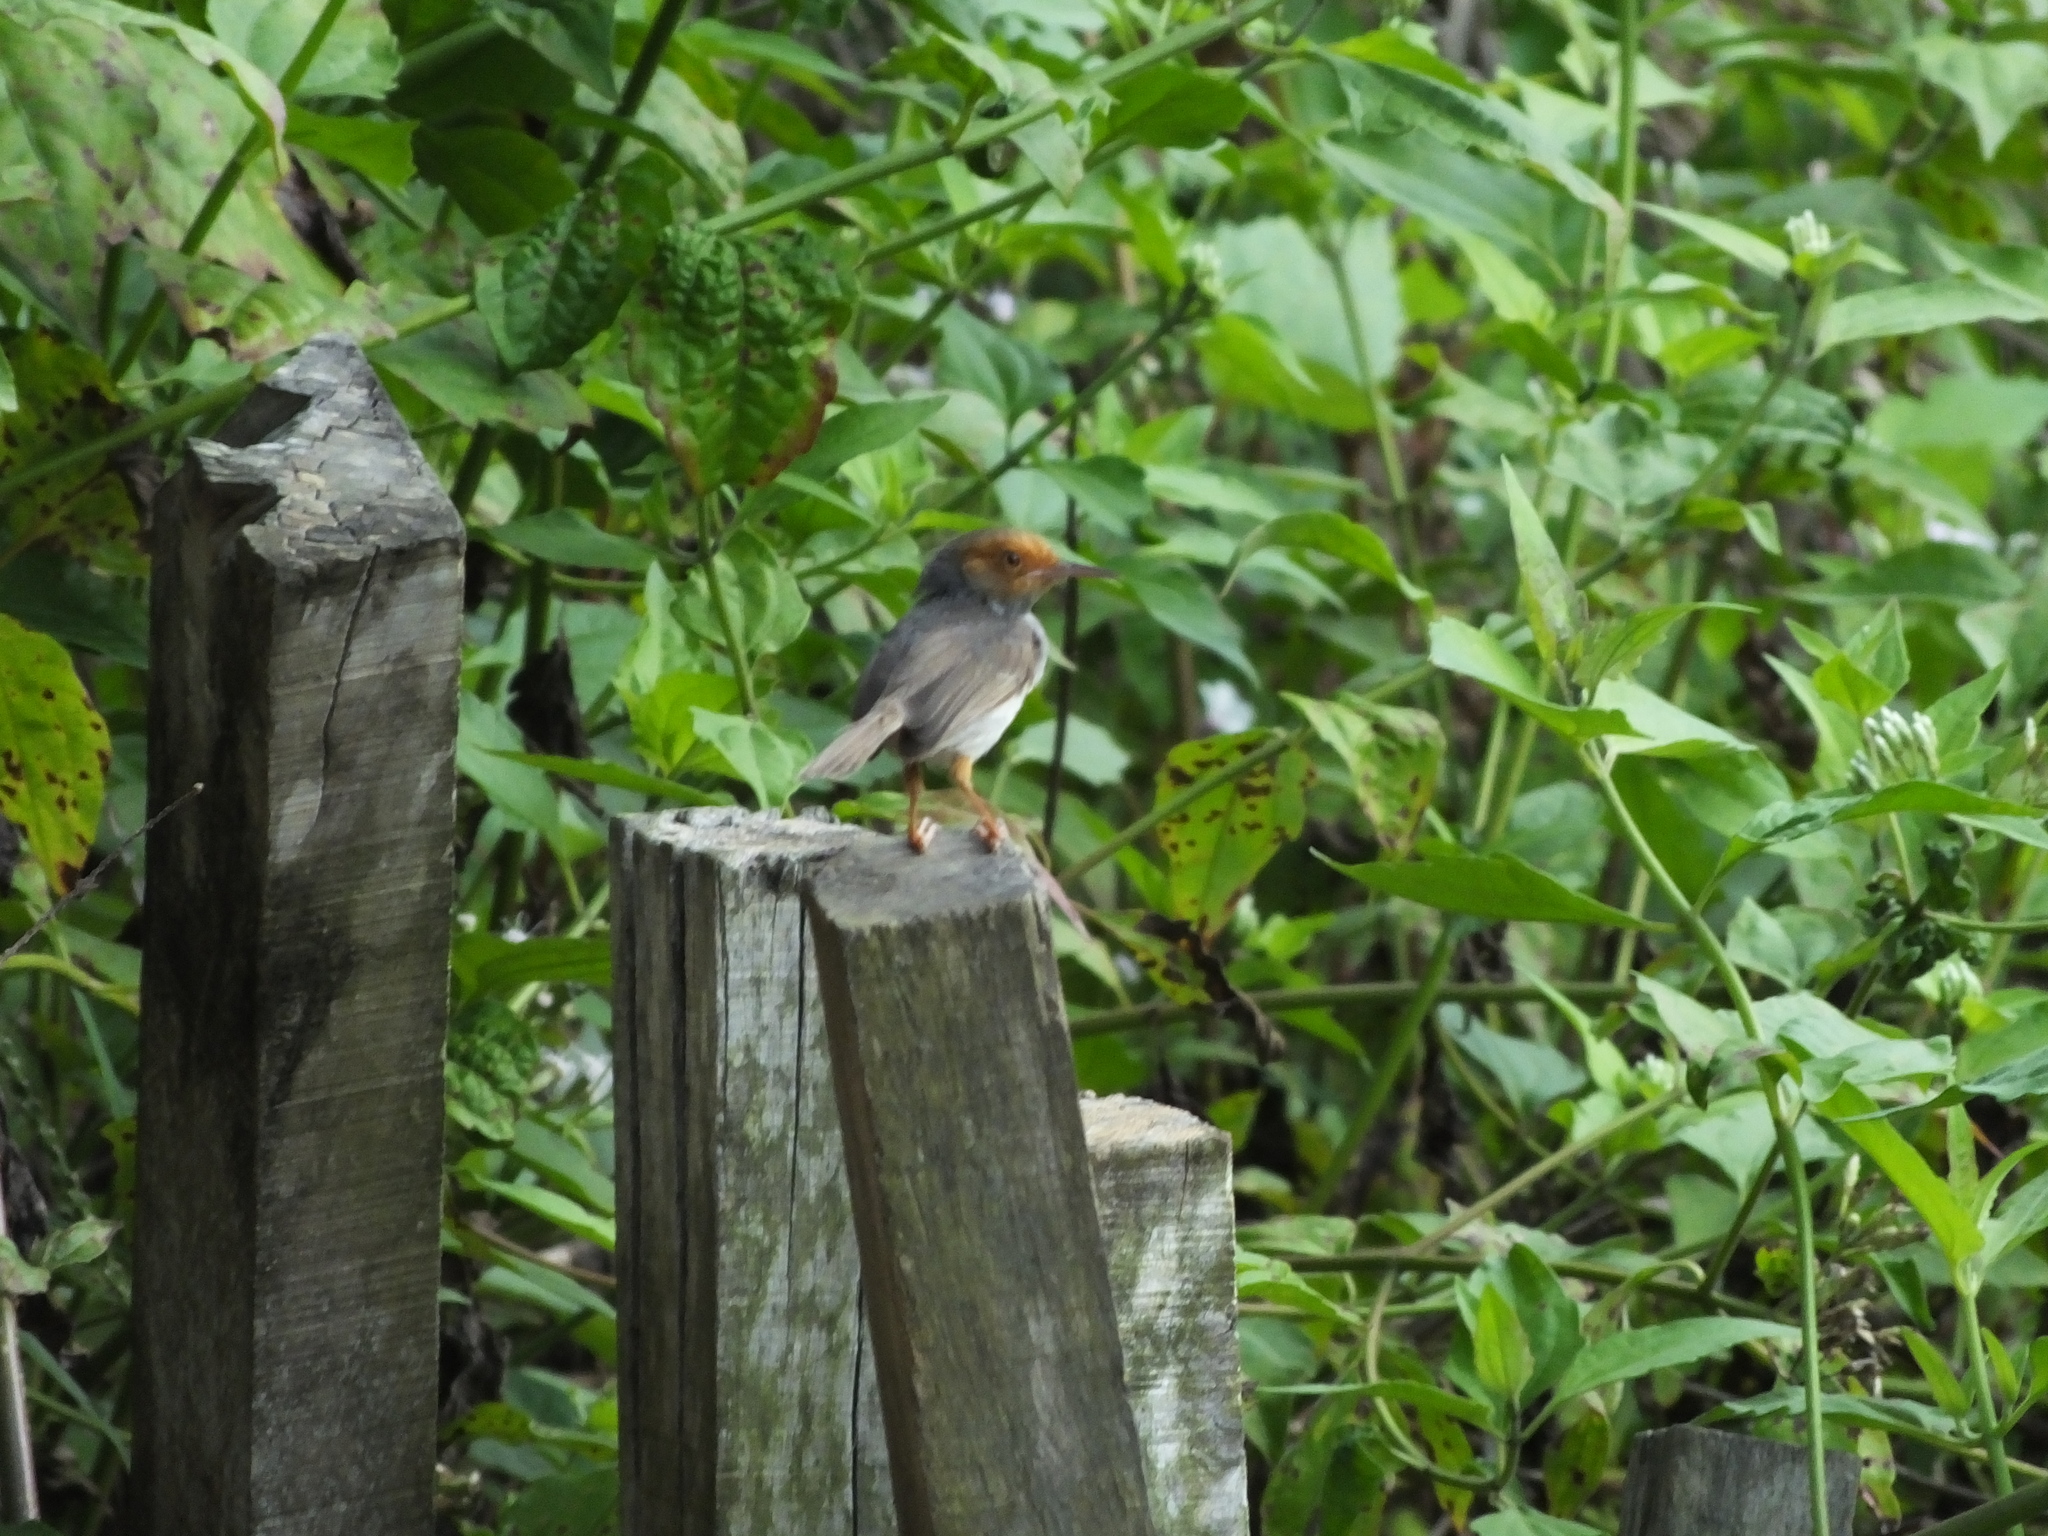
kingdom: Animalia
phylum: Chordata
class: Aves
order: Passeriformes
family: Cisticolidae
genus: Orthotomus
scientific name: Orthotomus ruficeps
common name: Ashy tailorbird
